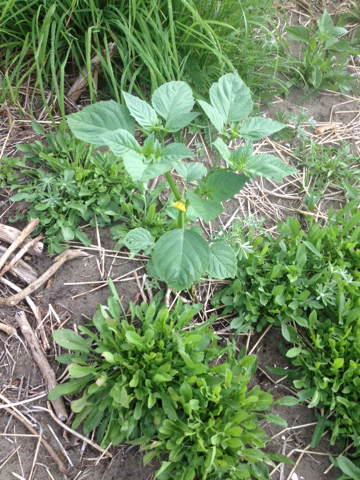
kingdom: Plantae
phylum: Tracheophyta
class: Magnoliopsida
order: Solanales
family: Solanaceae
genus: Physalis
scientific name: Physalis philadelphica
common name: Husk-tomato
